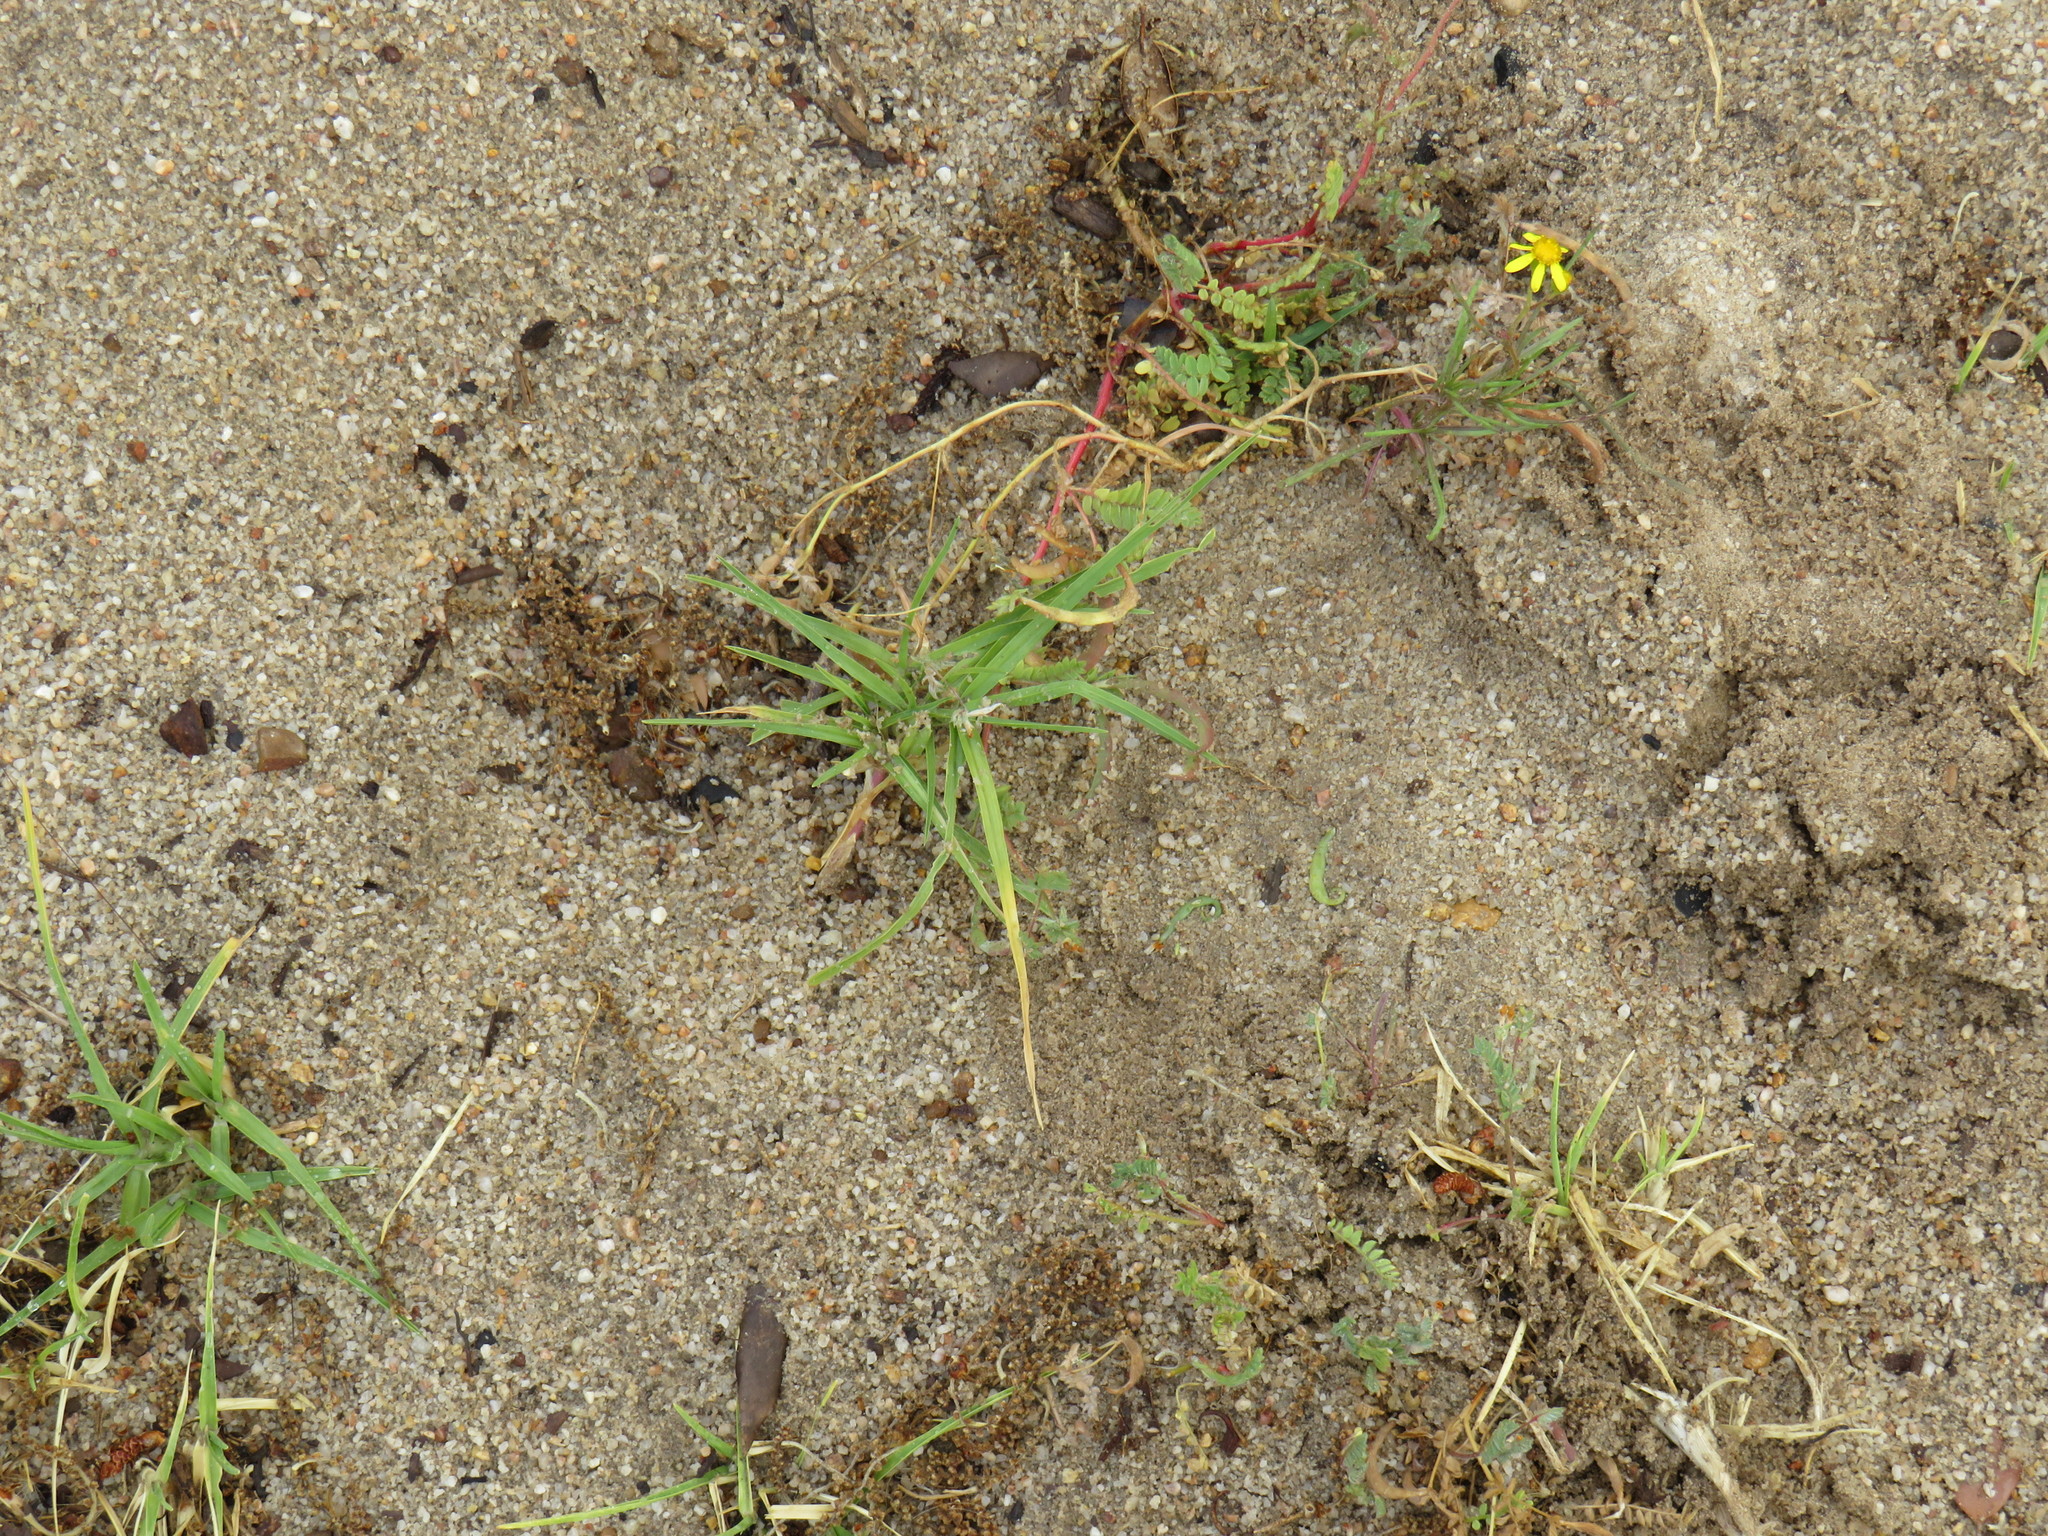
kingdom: Plantae
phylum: Tracheophyta
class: Liliopsida
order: Poales
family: Poaceae
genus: Cenchrus
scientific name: Cenchrus clandestinus
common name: Kikuyugrass
